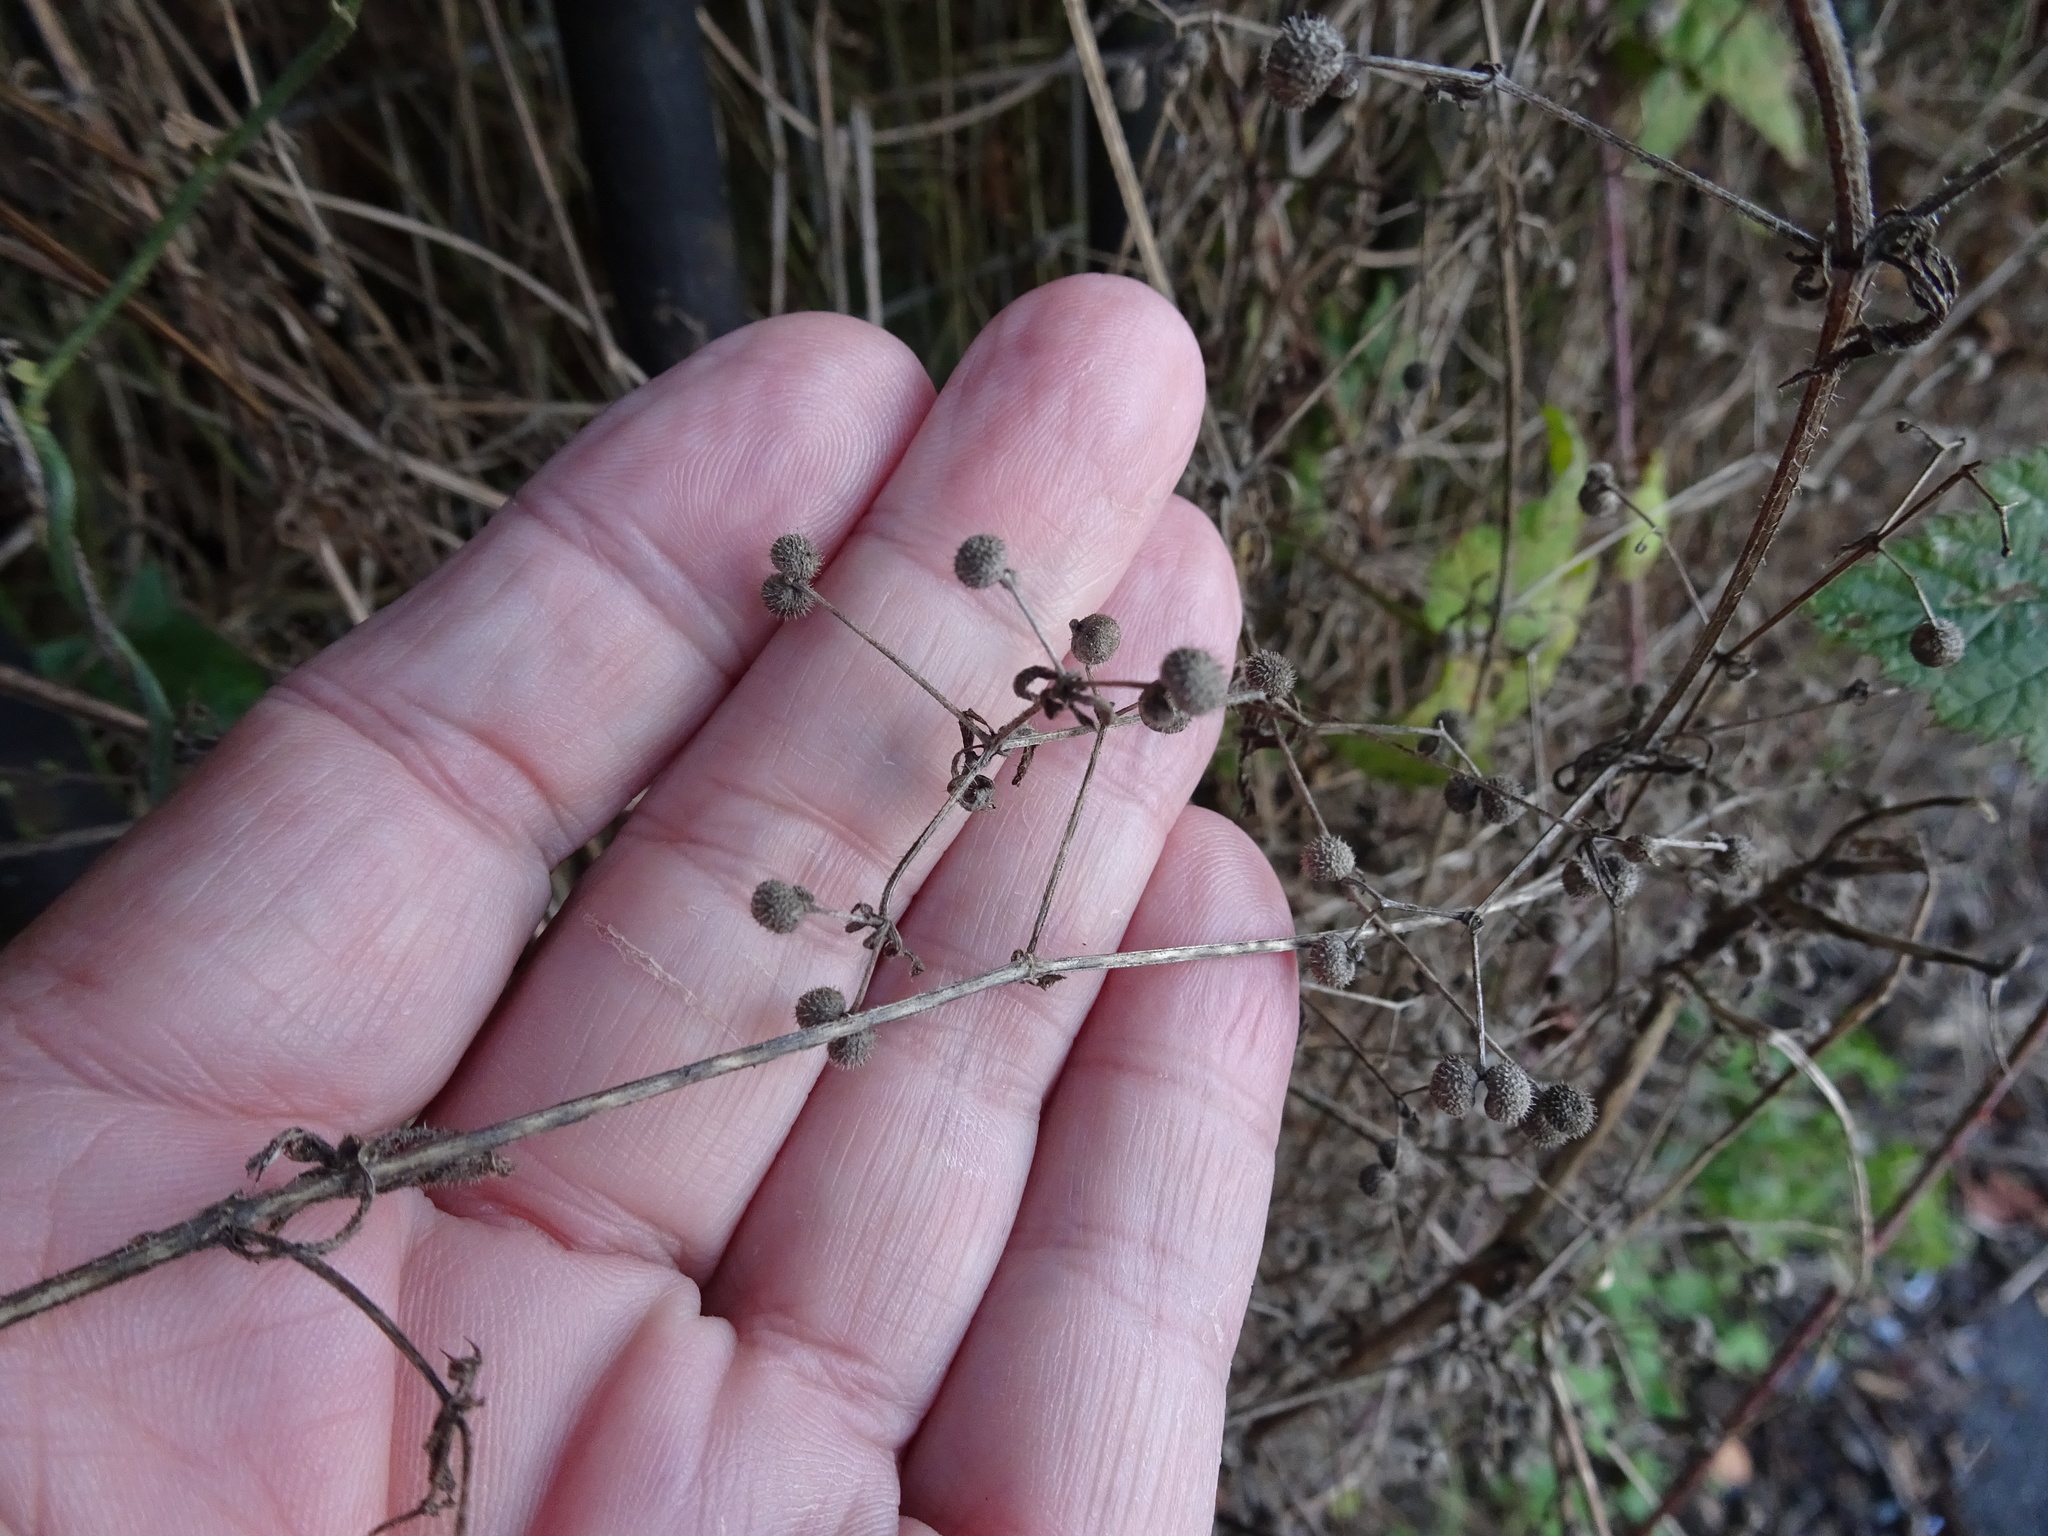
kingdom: Plantae
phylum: Tracheophyta
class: Magnoliopsida
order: Gentianales
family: Rubiaceae
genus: Galium
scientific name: Galium aparine
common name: Cleavers
